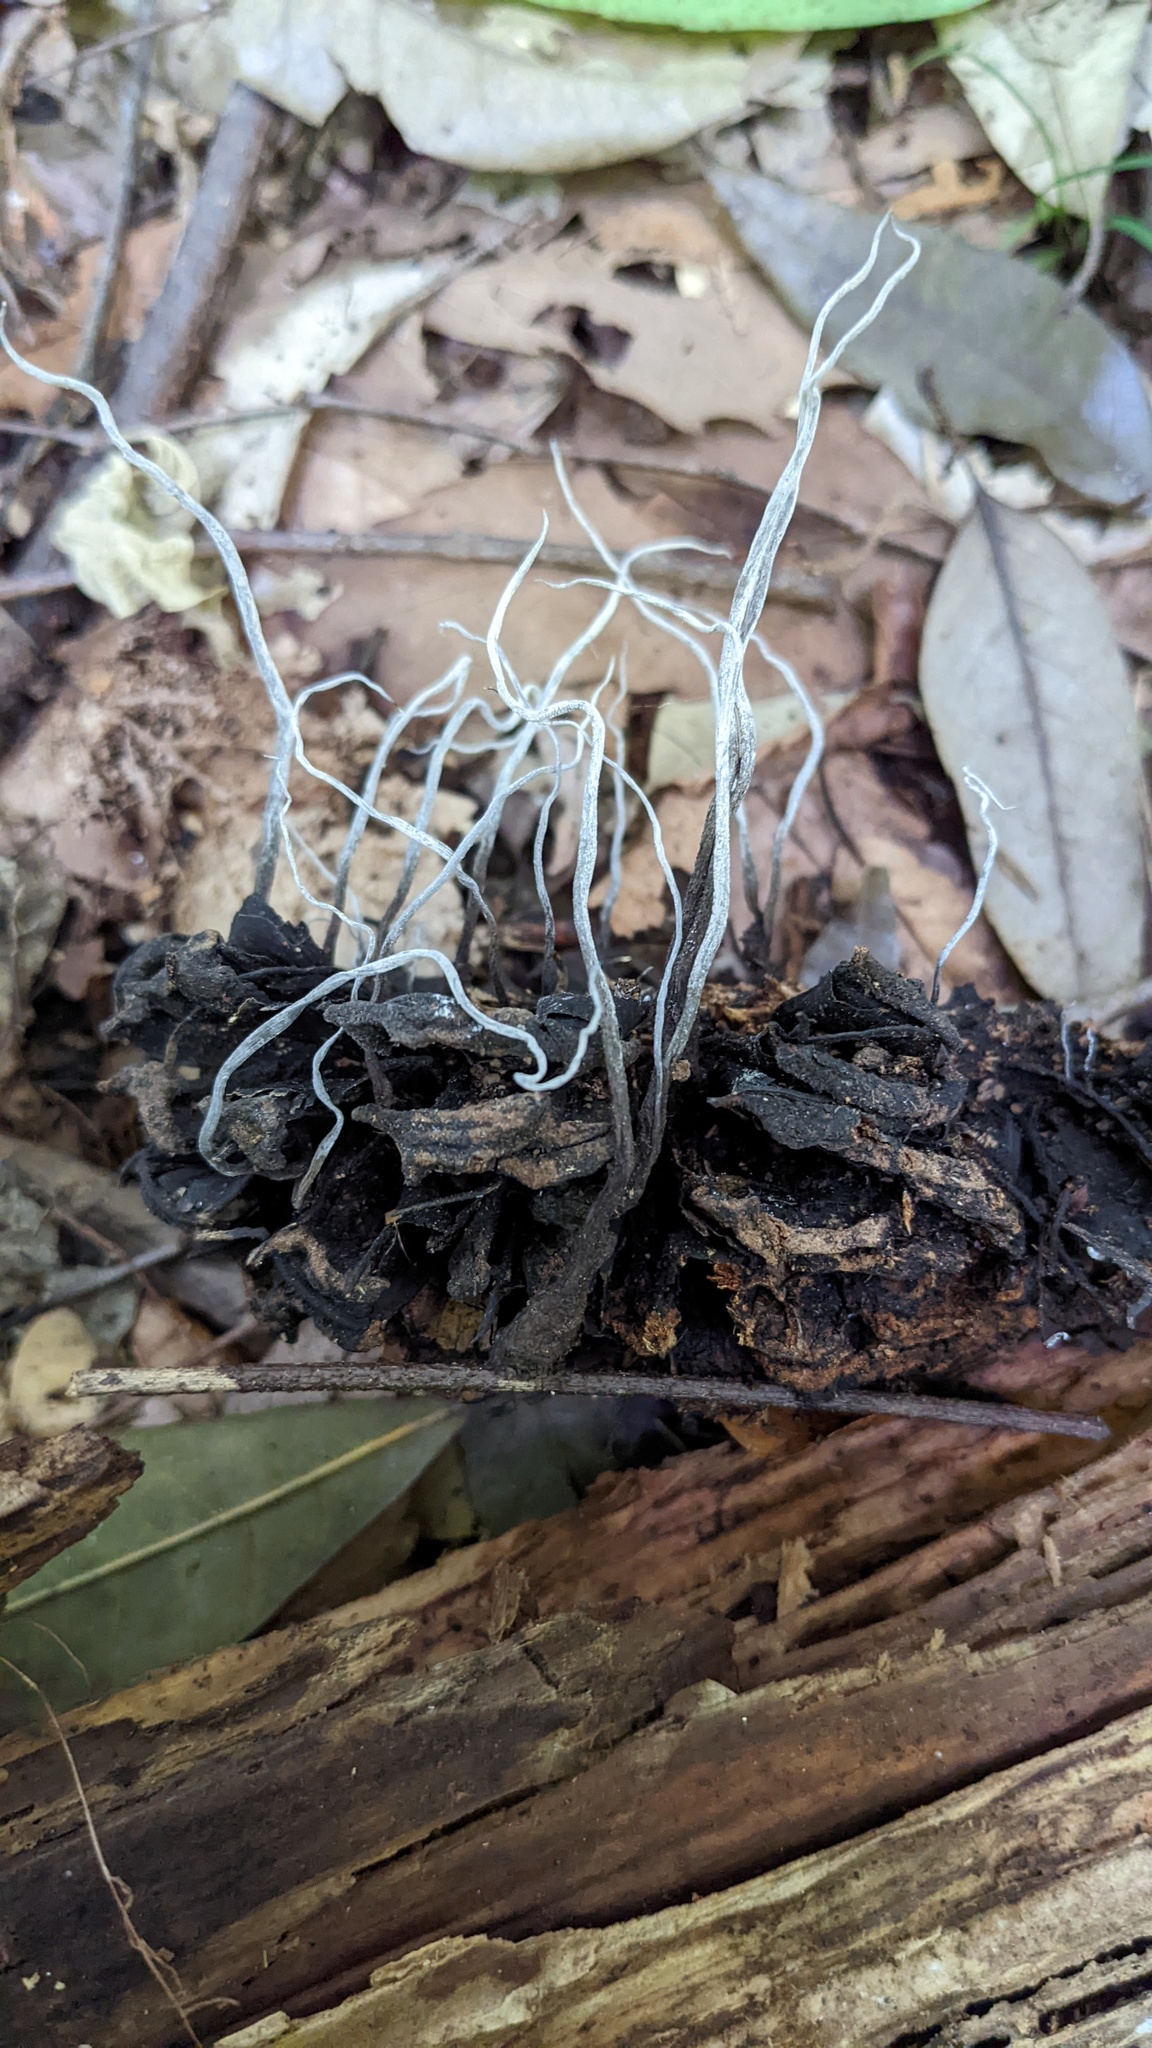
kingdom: Fungi
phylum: Ascomycota
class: Sordariomycetes
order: Xylariales
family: Xylariaceae
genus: Xylaria
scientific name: Xylaria magnoliae
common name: Magnolia-cone xylaria
